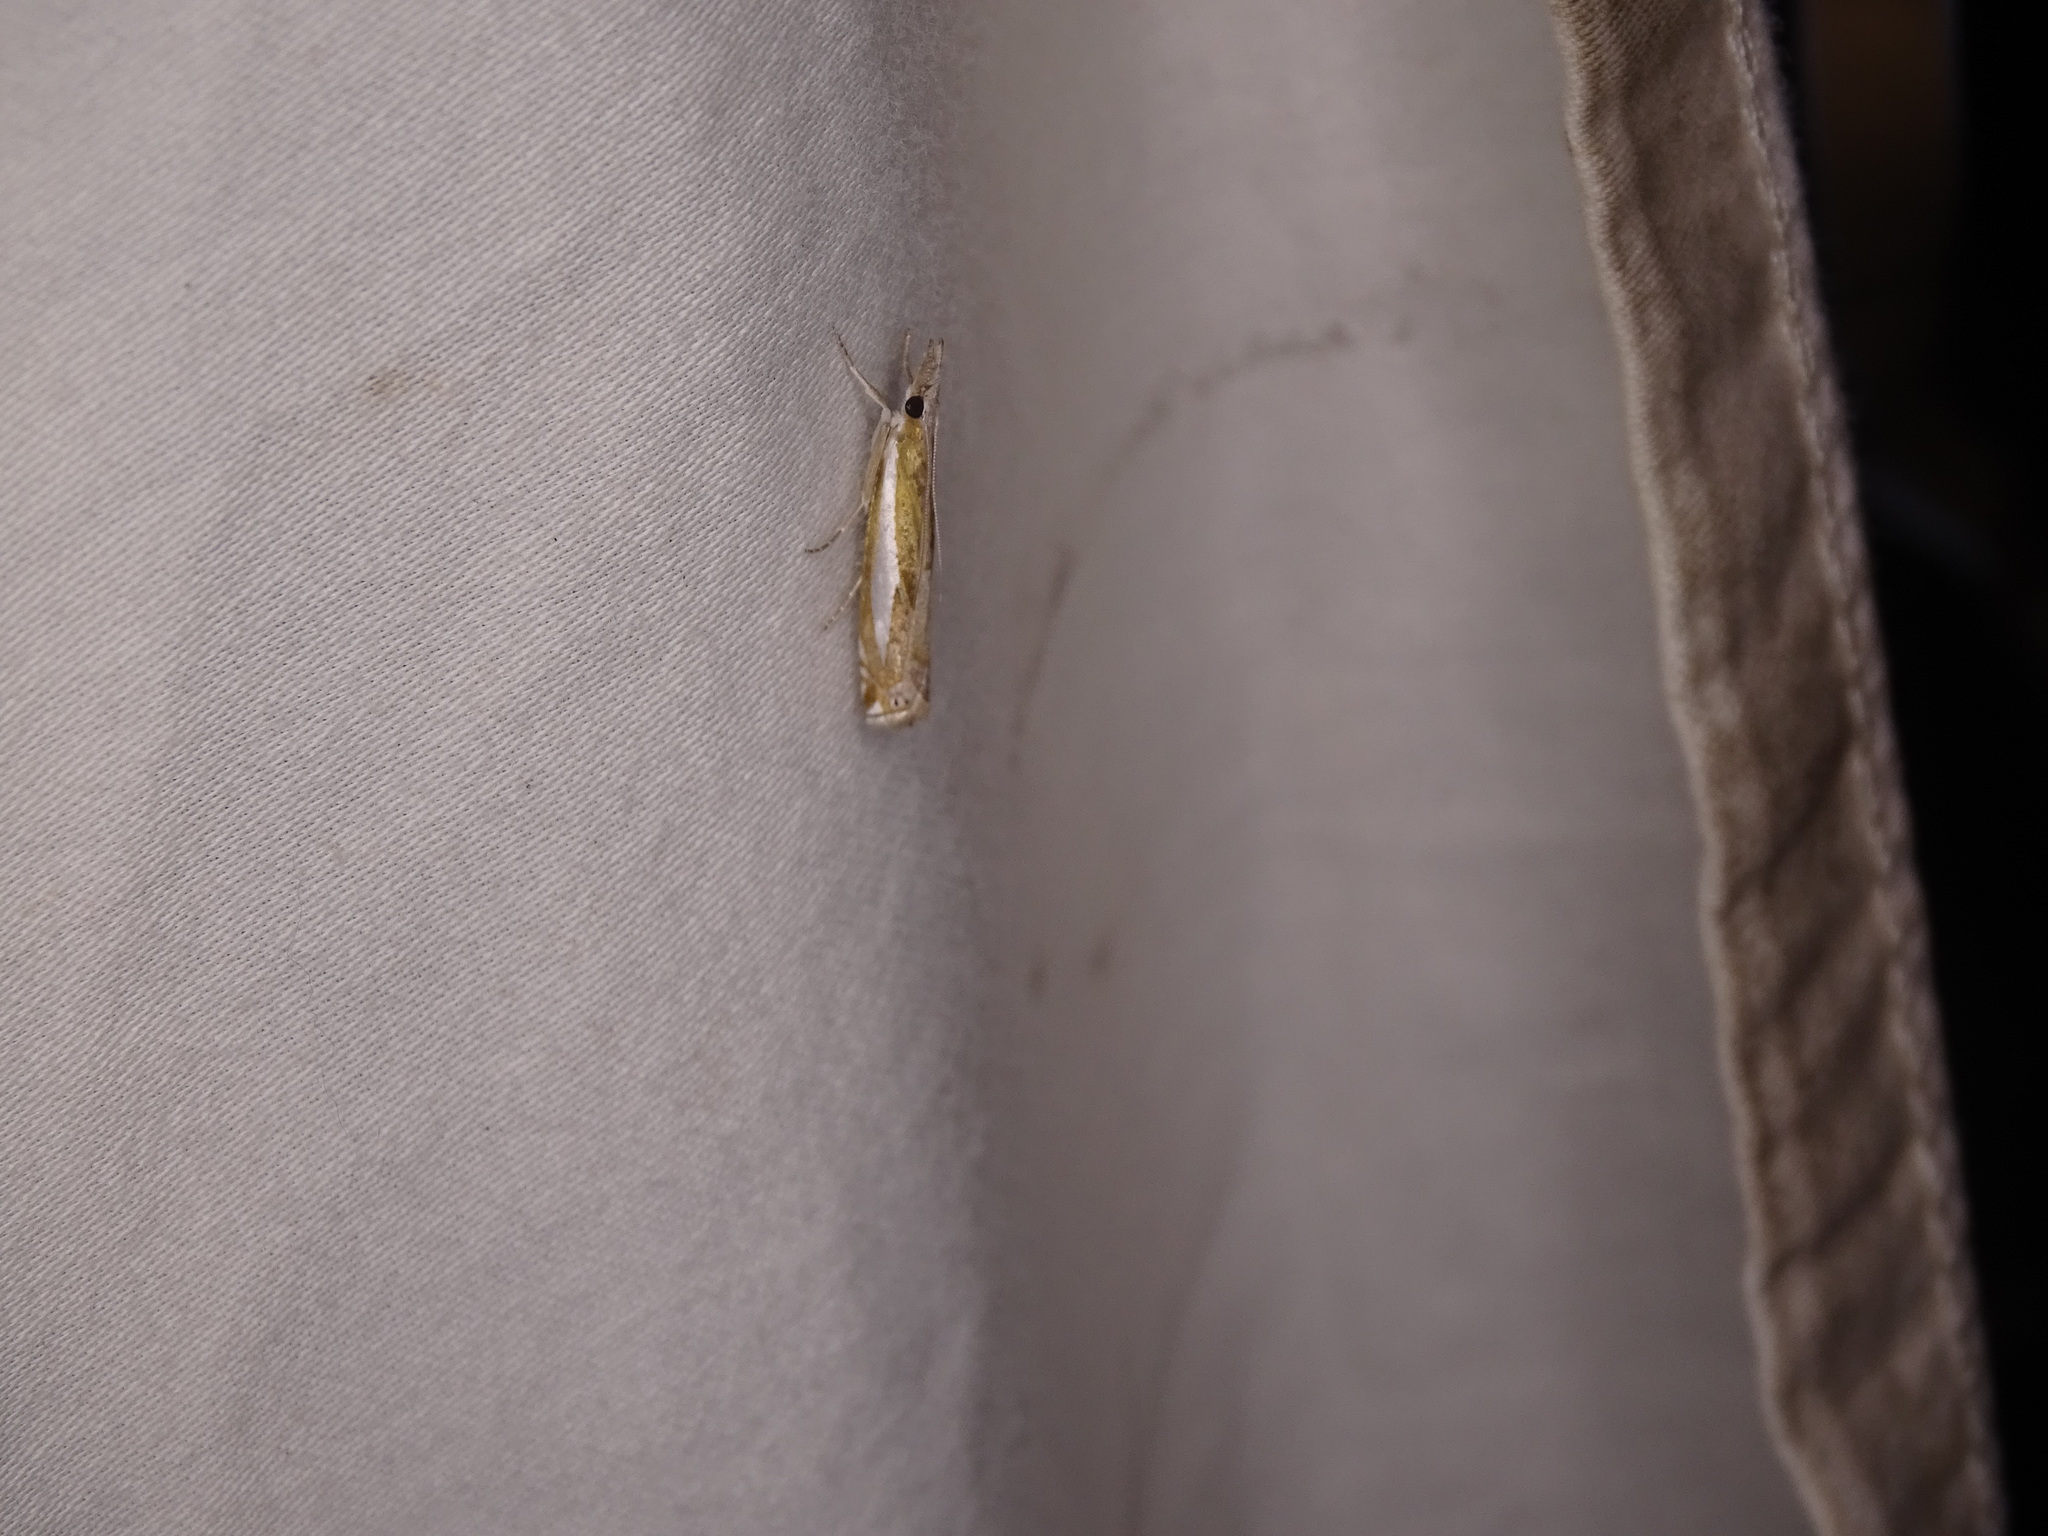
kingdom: Animalia
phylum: Arthropoda
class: Insecta
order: Lepidoptera
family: Crambidae
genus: Crambus
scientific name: Crambus praefectellus
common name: Common grass-veneer
